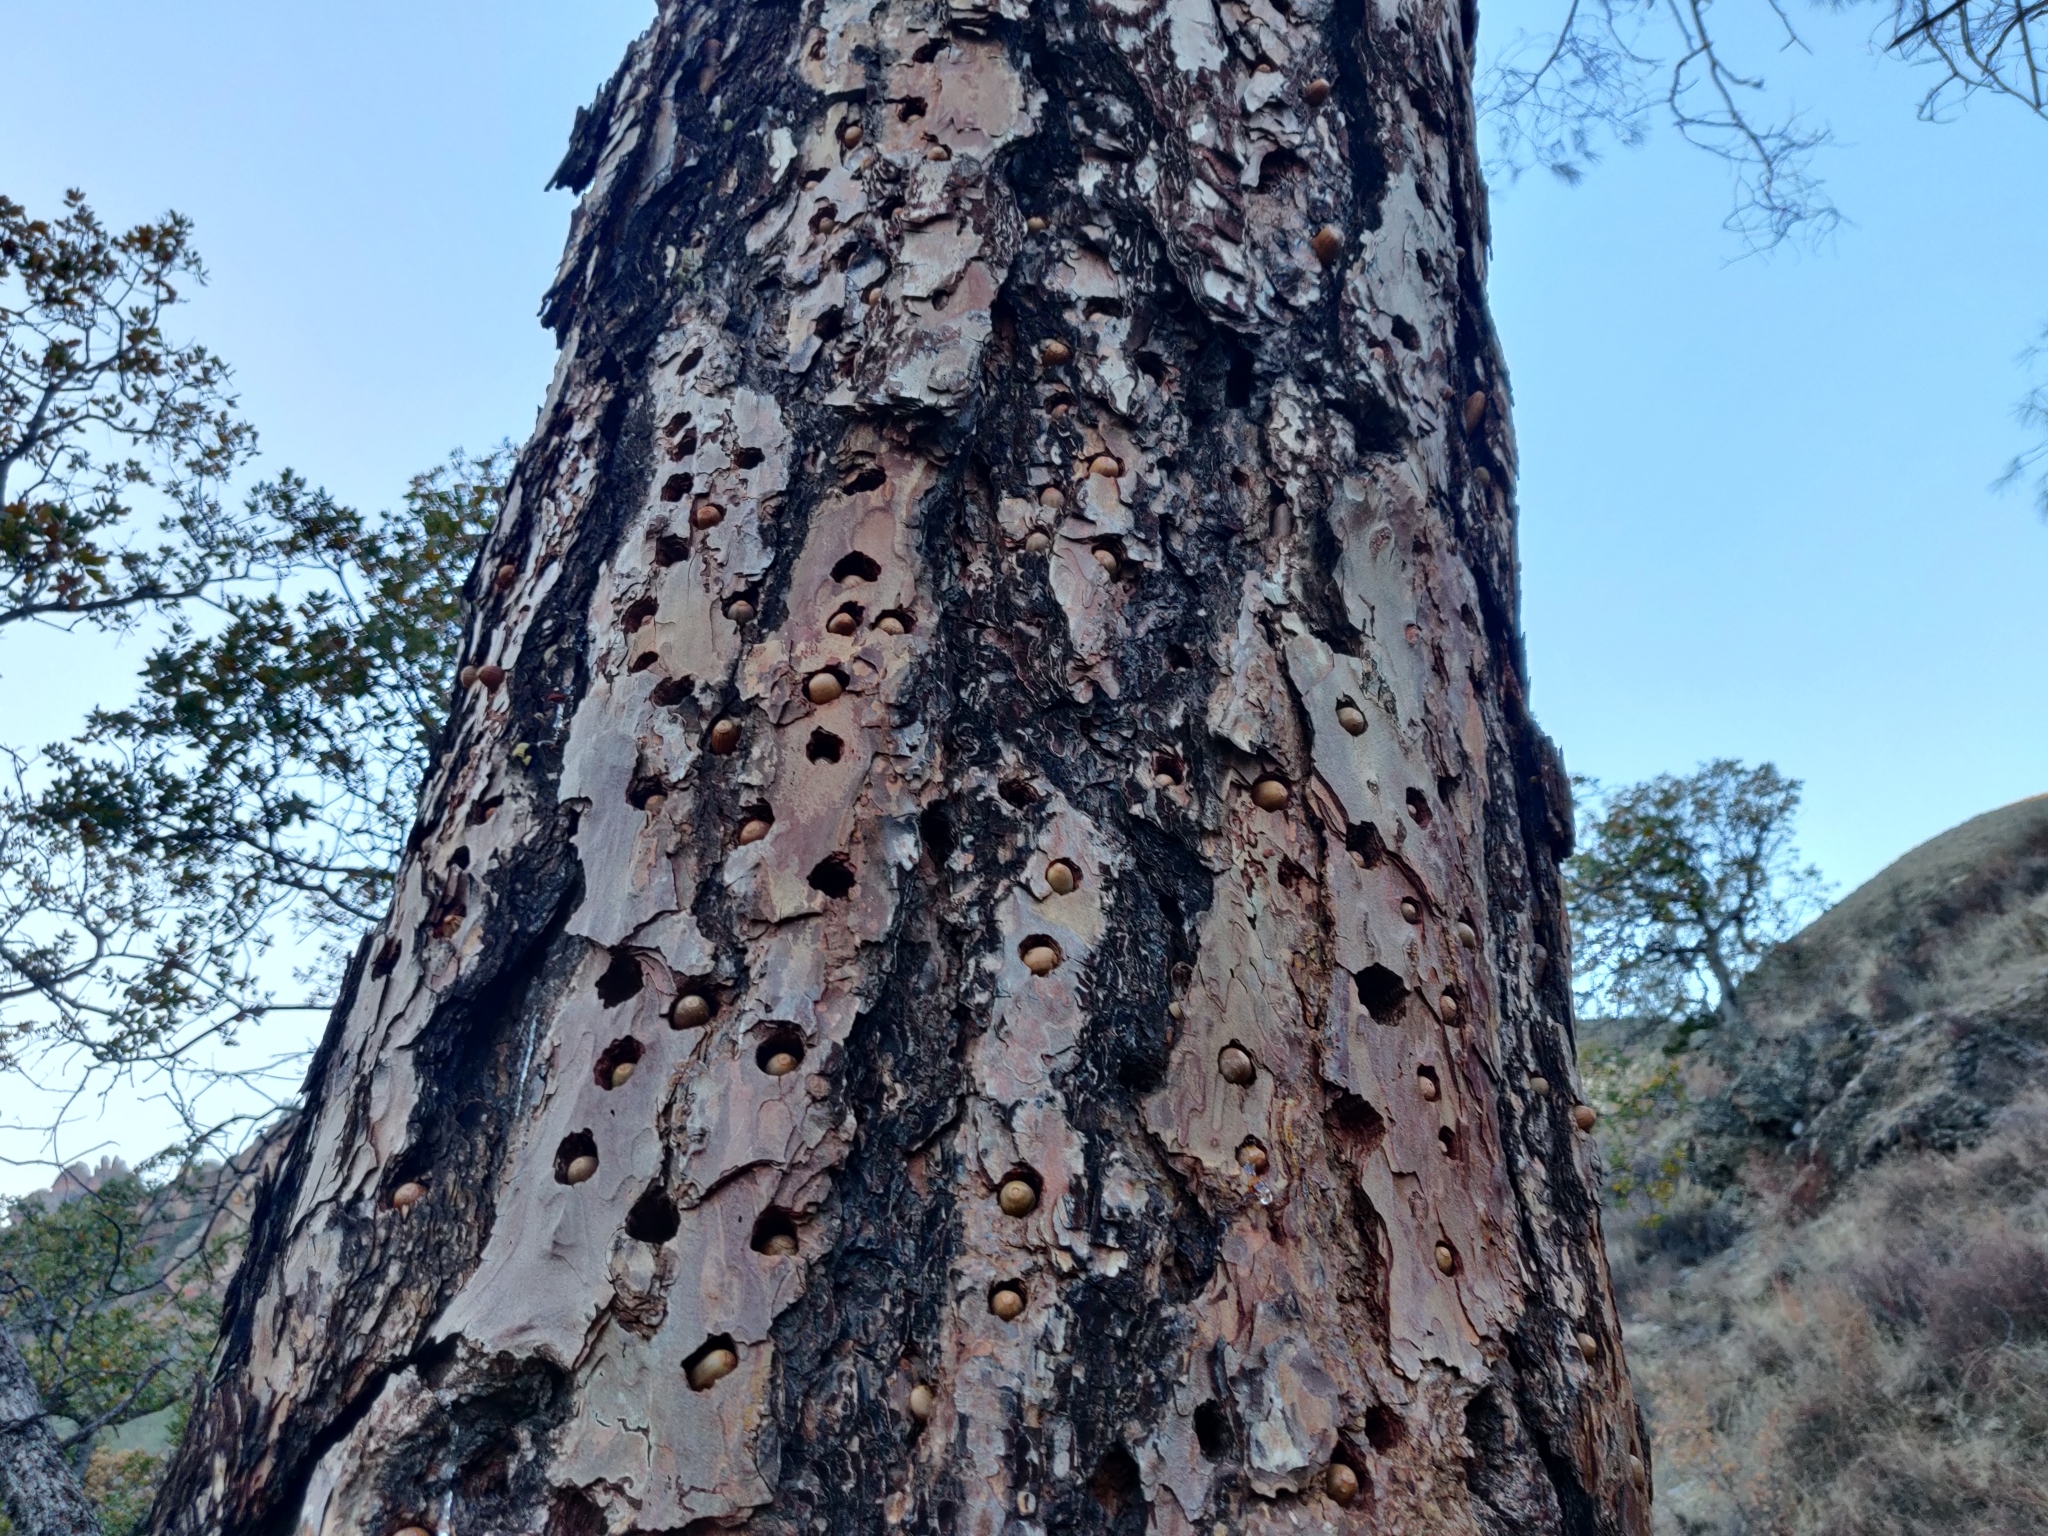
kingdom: Animalia
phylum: Chordata
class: Aves
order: Piciformes
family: Picidae
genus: Melanerpes
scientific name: Melanerpes formicivorus
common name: Acorn woodpecker
